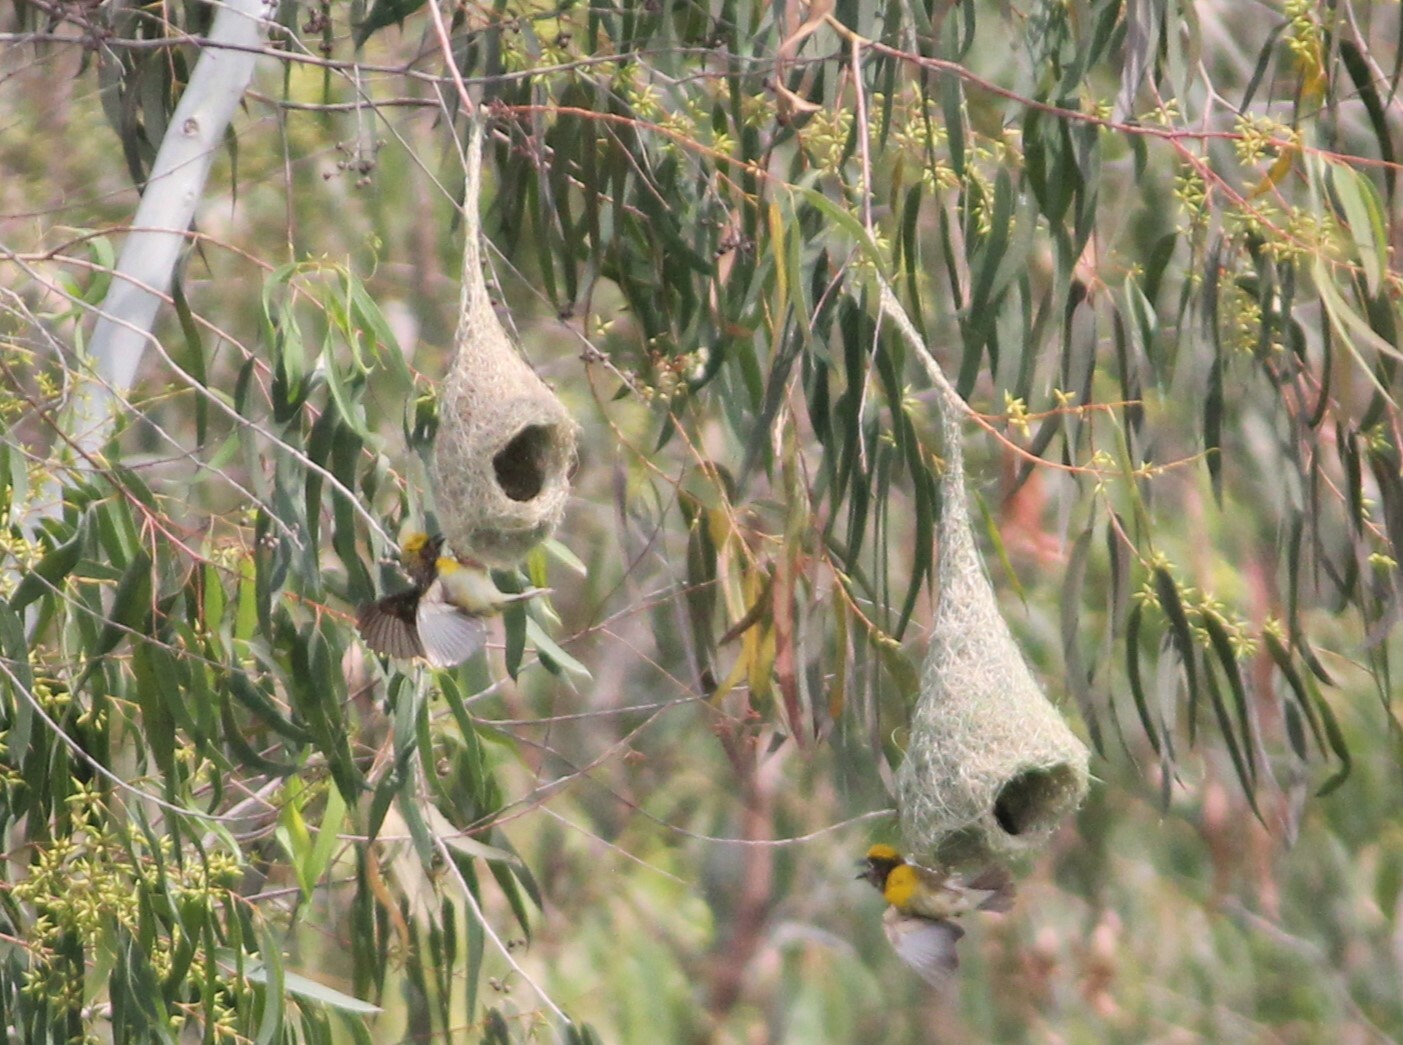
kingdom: Animalia
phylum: Chordata
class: Aves
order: Passeriformes
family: Ploceidae
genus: Ploceus
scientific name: Ploceus philippinus
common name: Baya weaver
